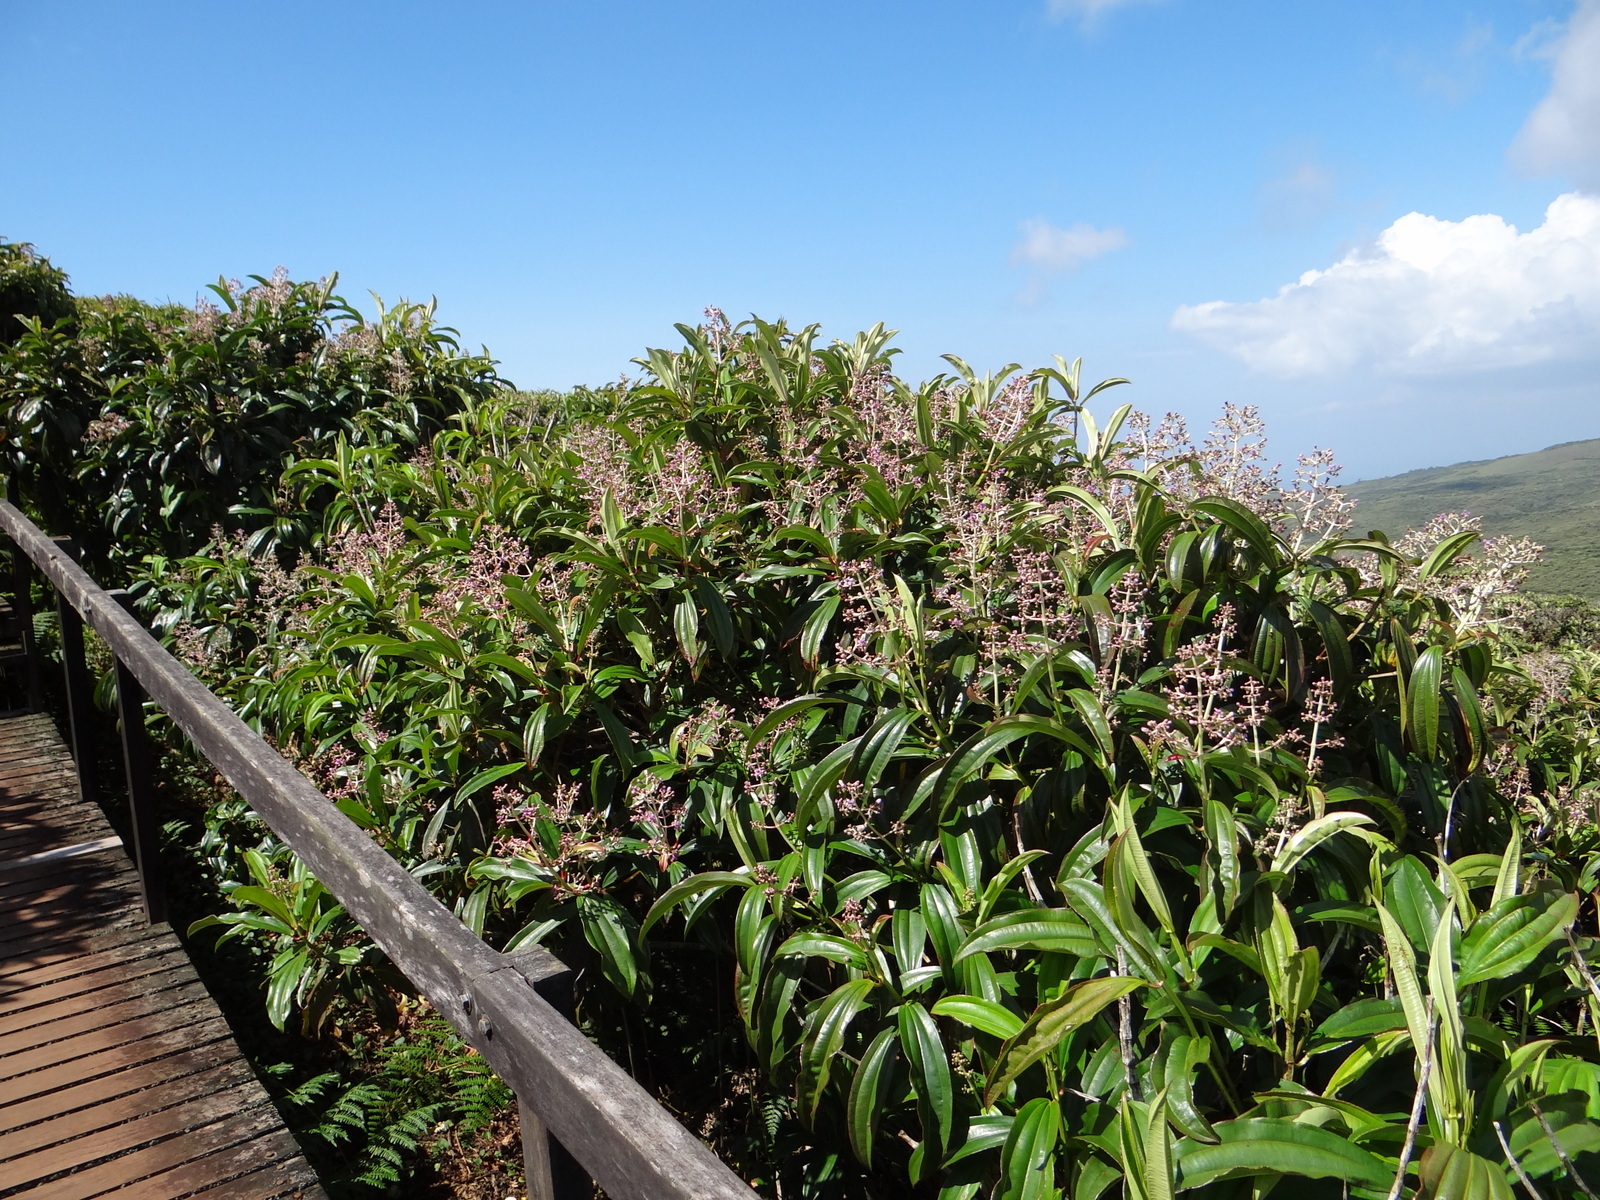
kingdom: Plantae
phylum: Tracheophyta
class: Magnoliopsida
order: Myrtales
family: Melastomataceae
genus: Miconia
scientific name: Miconia robinsoniana
